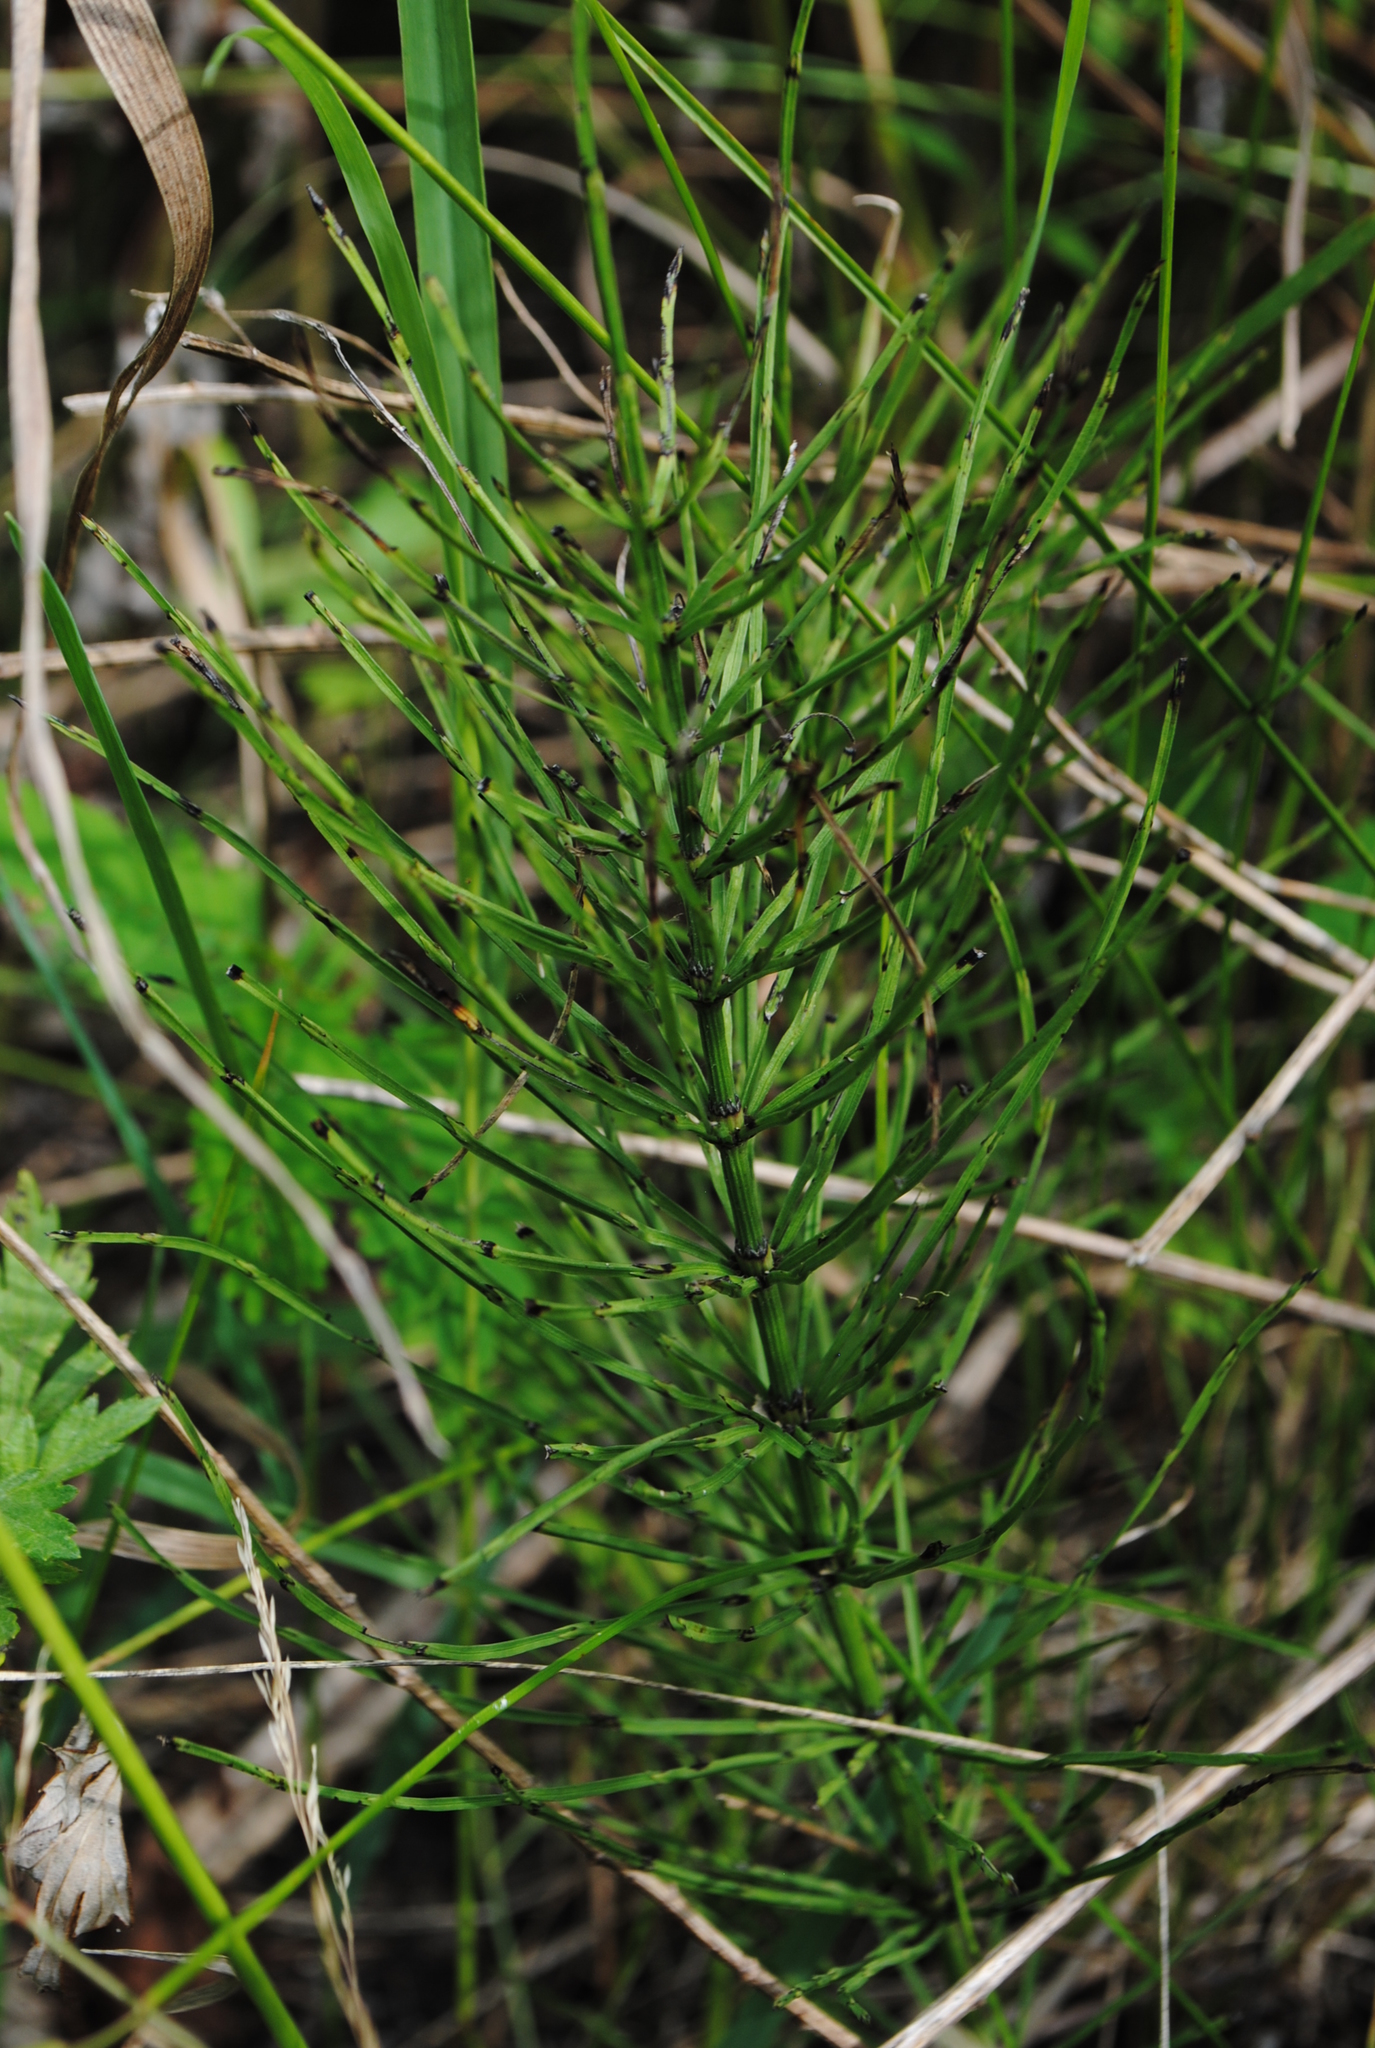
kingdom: Plantae
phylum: Tracheophyta
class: Polypodiopsida
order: Equisetales
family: Equisetaceae
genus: Equisetum
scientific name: Equisetum arvense
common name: Field horsetail
